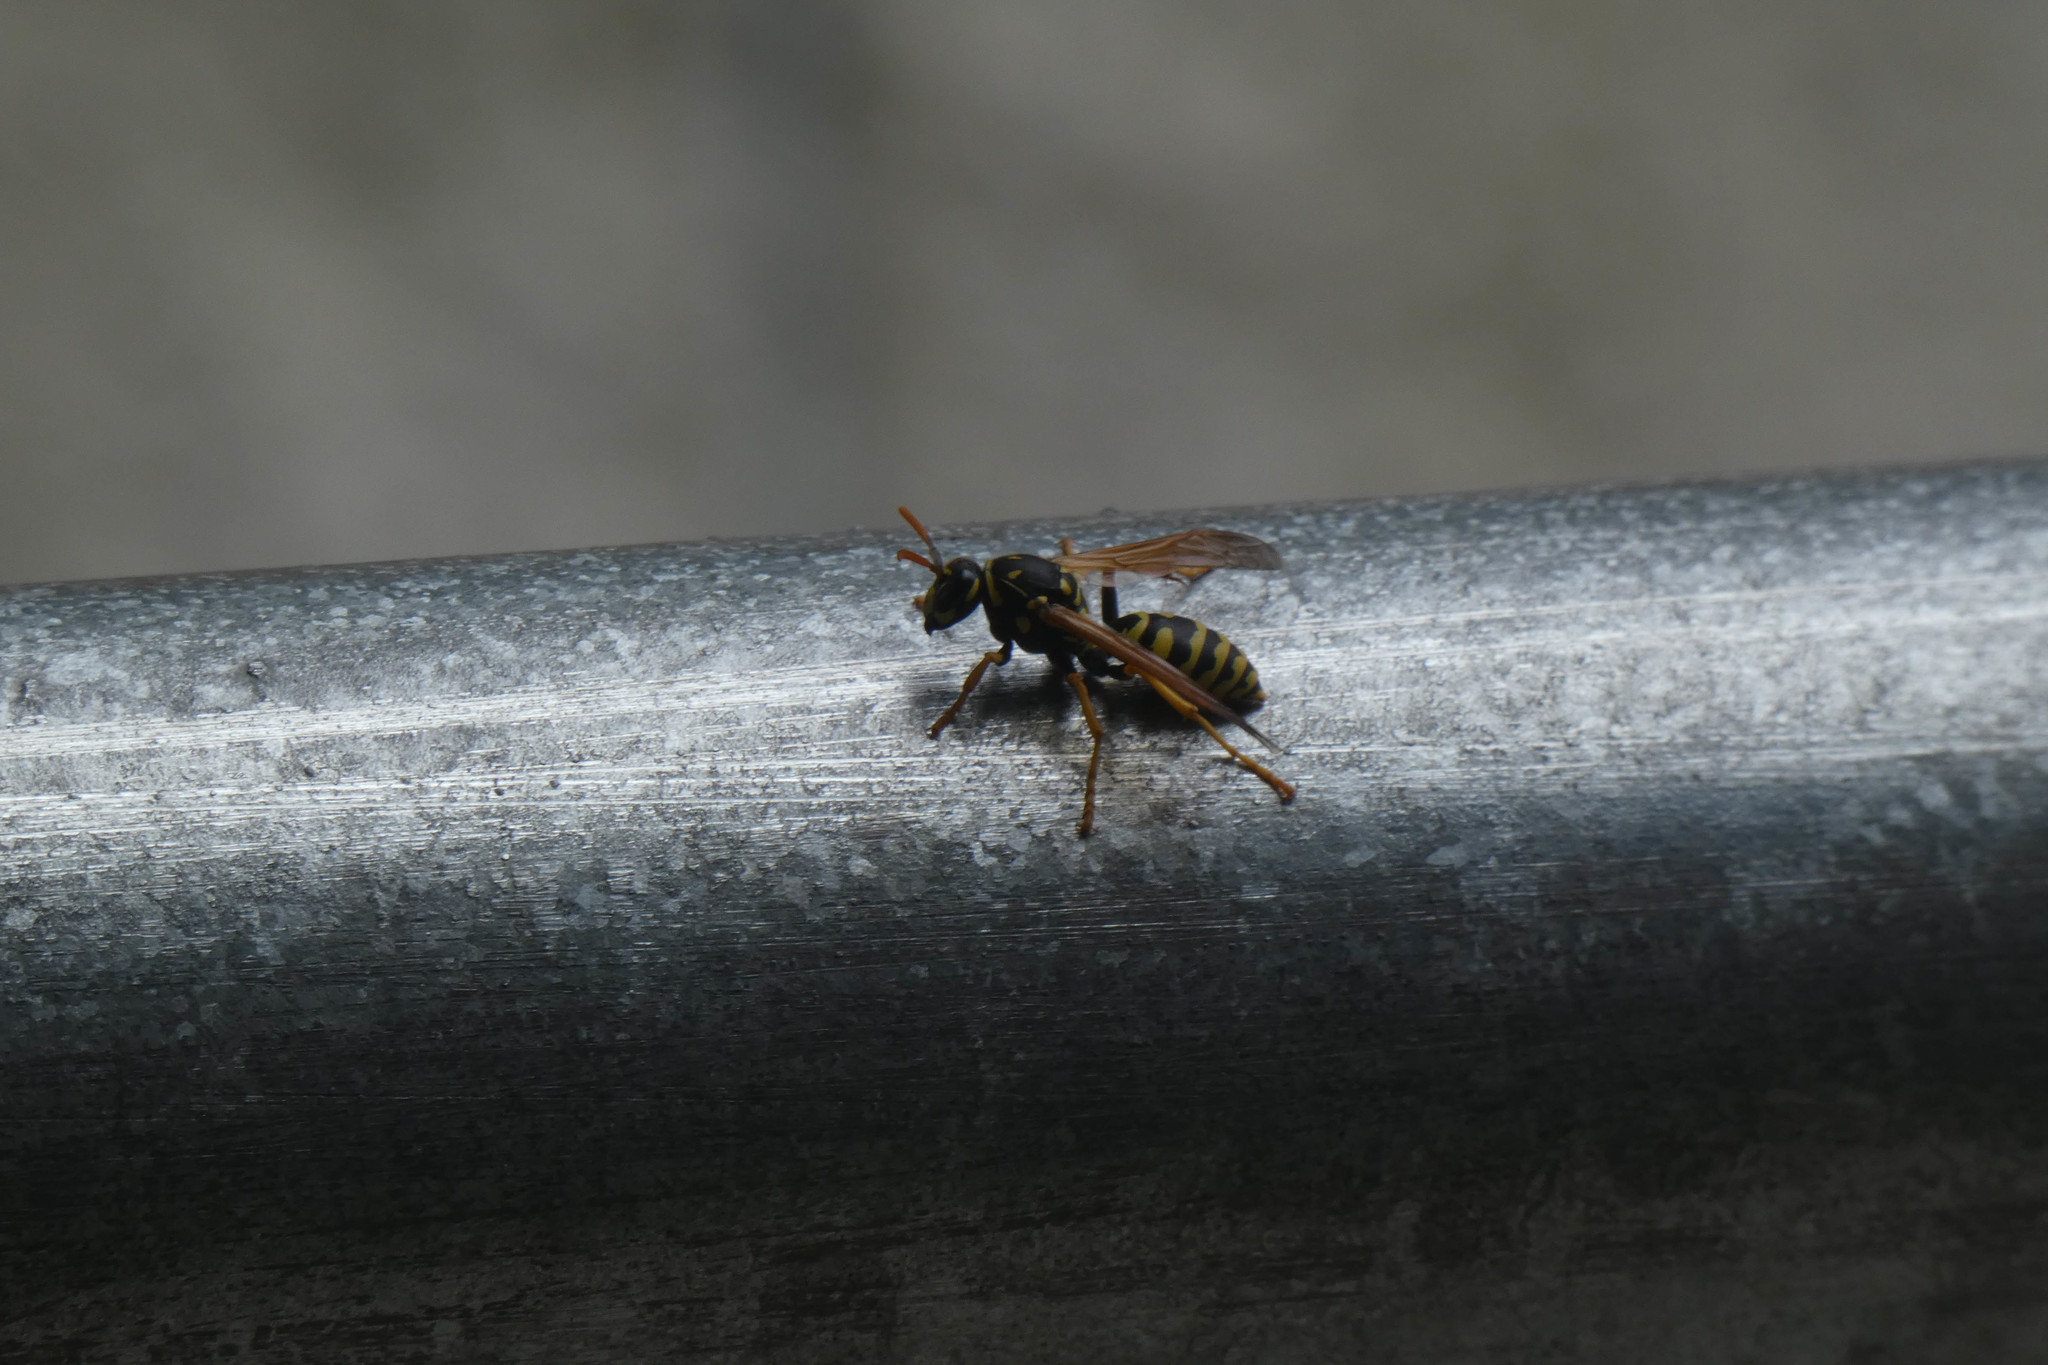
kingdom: Animalia
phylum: Arthropoda
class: Insecta
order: Hymenoptera
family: Eumenidae
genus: Polistes
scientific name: Polistes dominula
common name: Paper wasp
